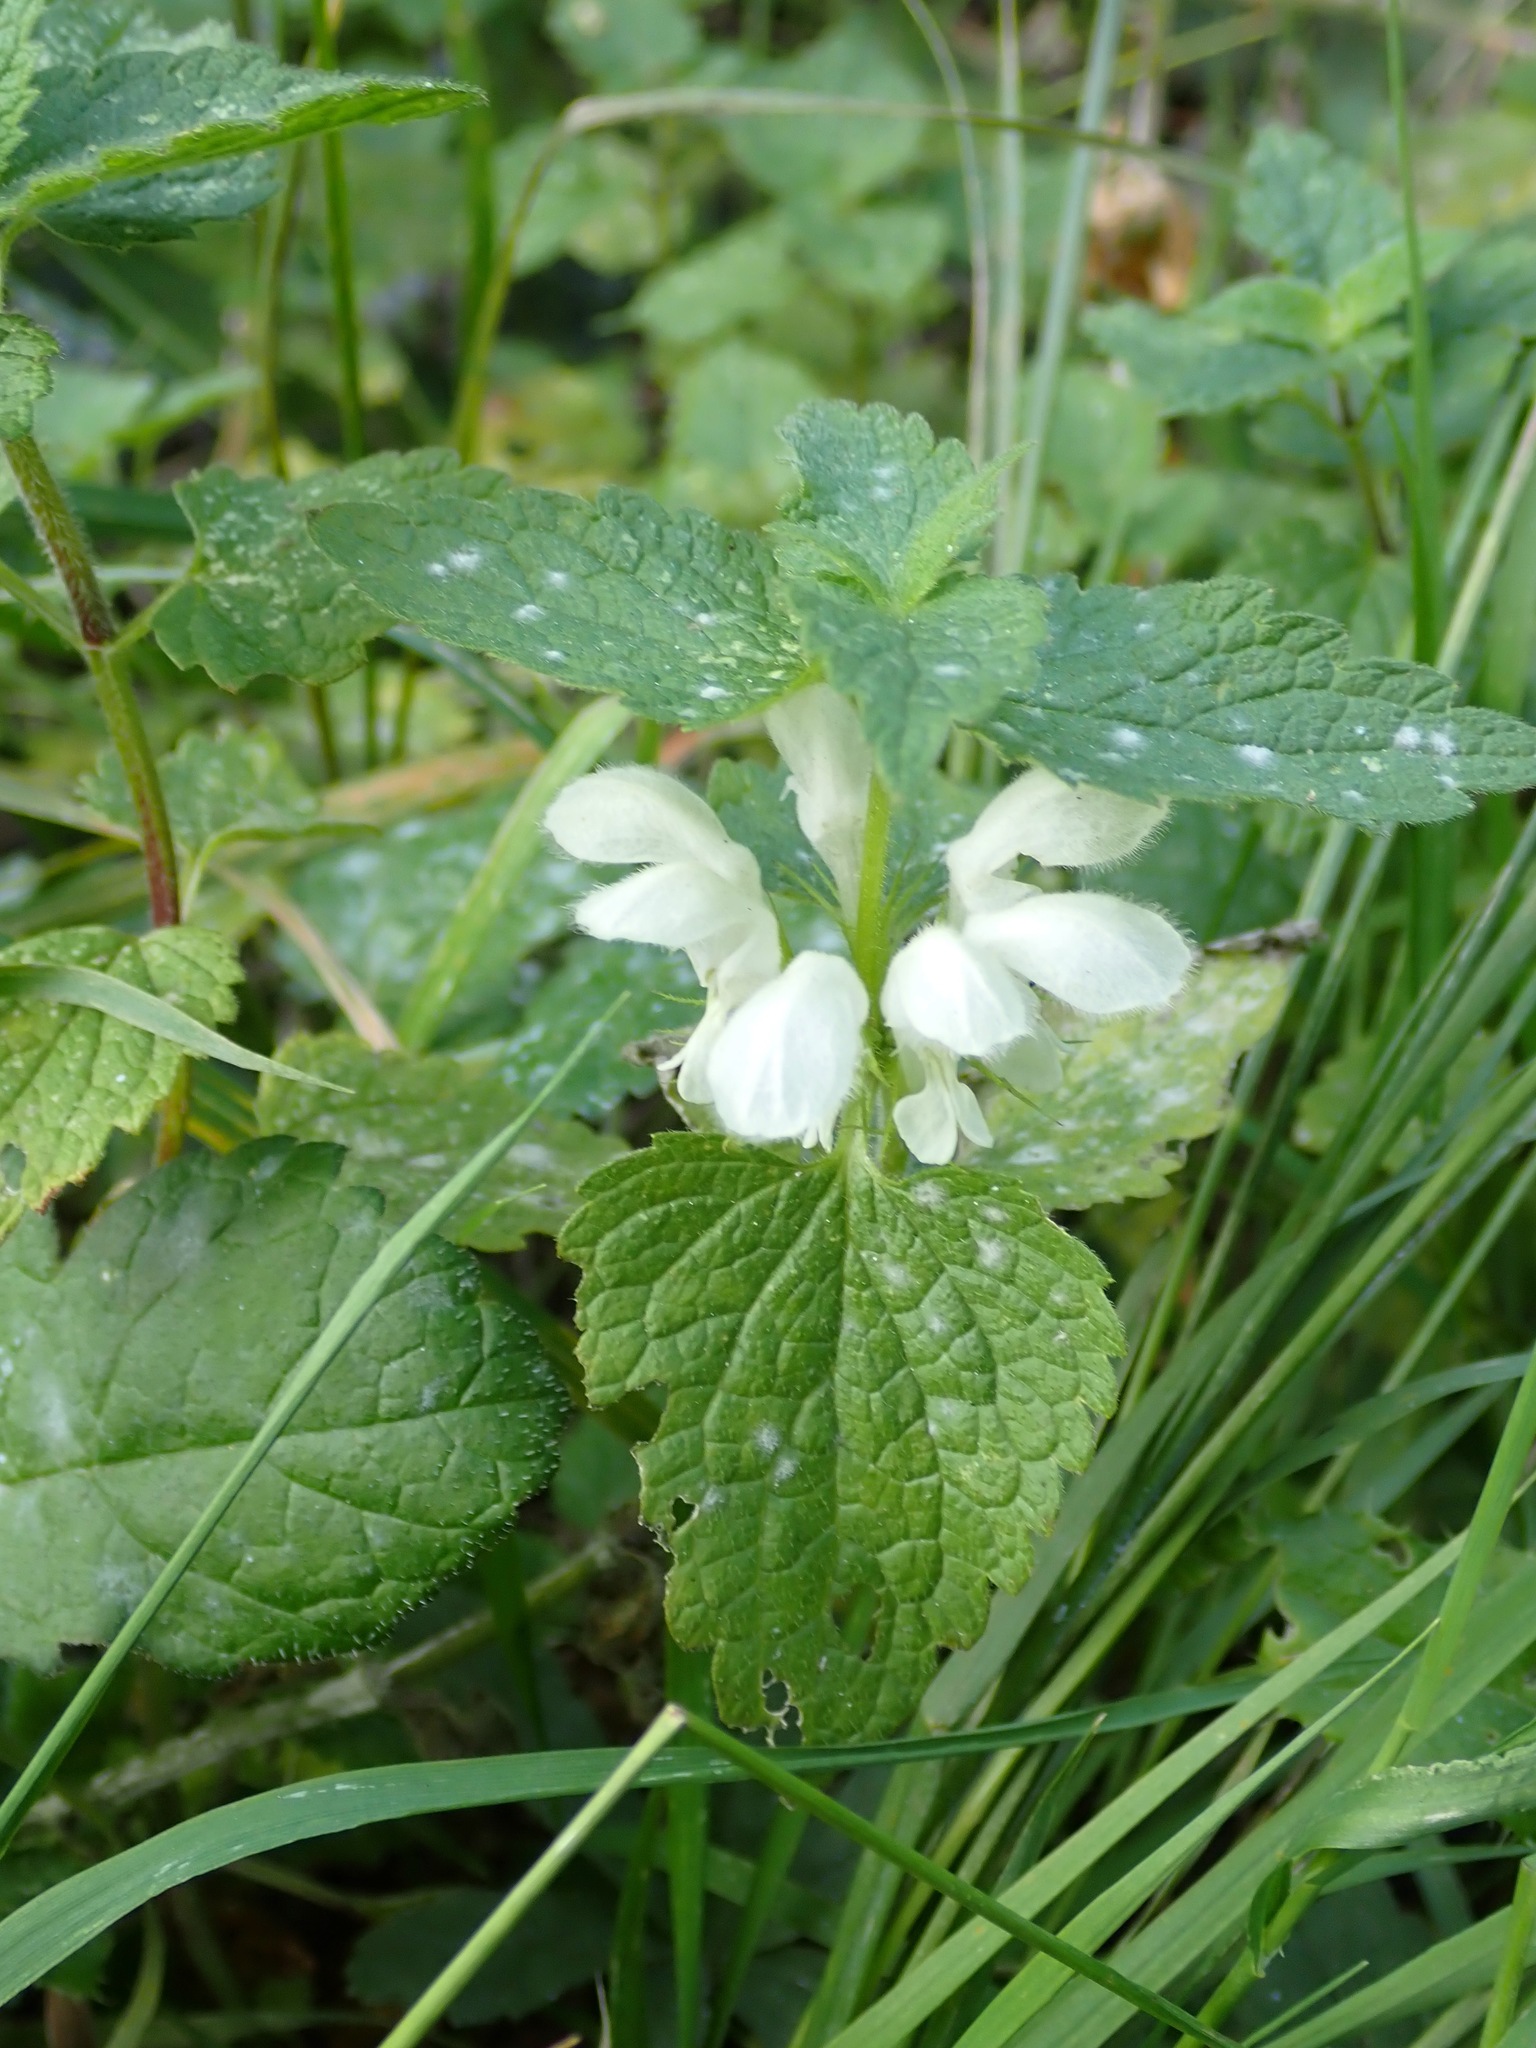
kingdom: Plantae
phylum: Tracheophyta
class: Magnoliopsida
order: Lamiales
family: Lamiaceae
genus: Lamium
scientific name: Lamium album
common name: White dead-nettle
